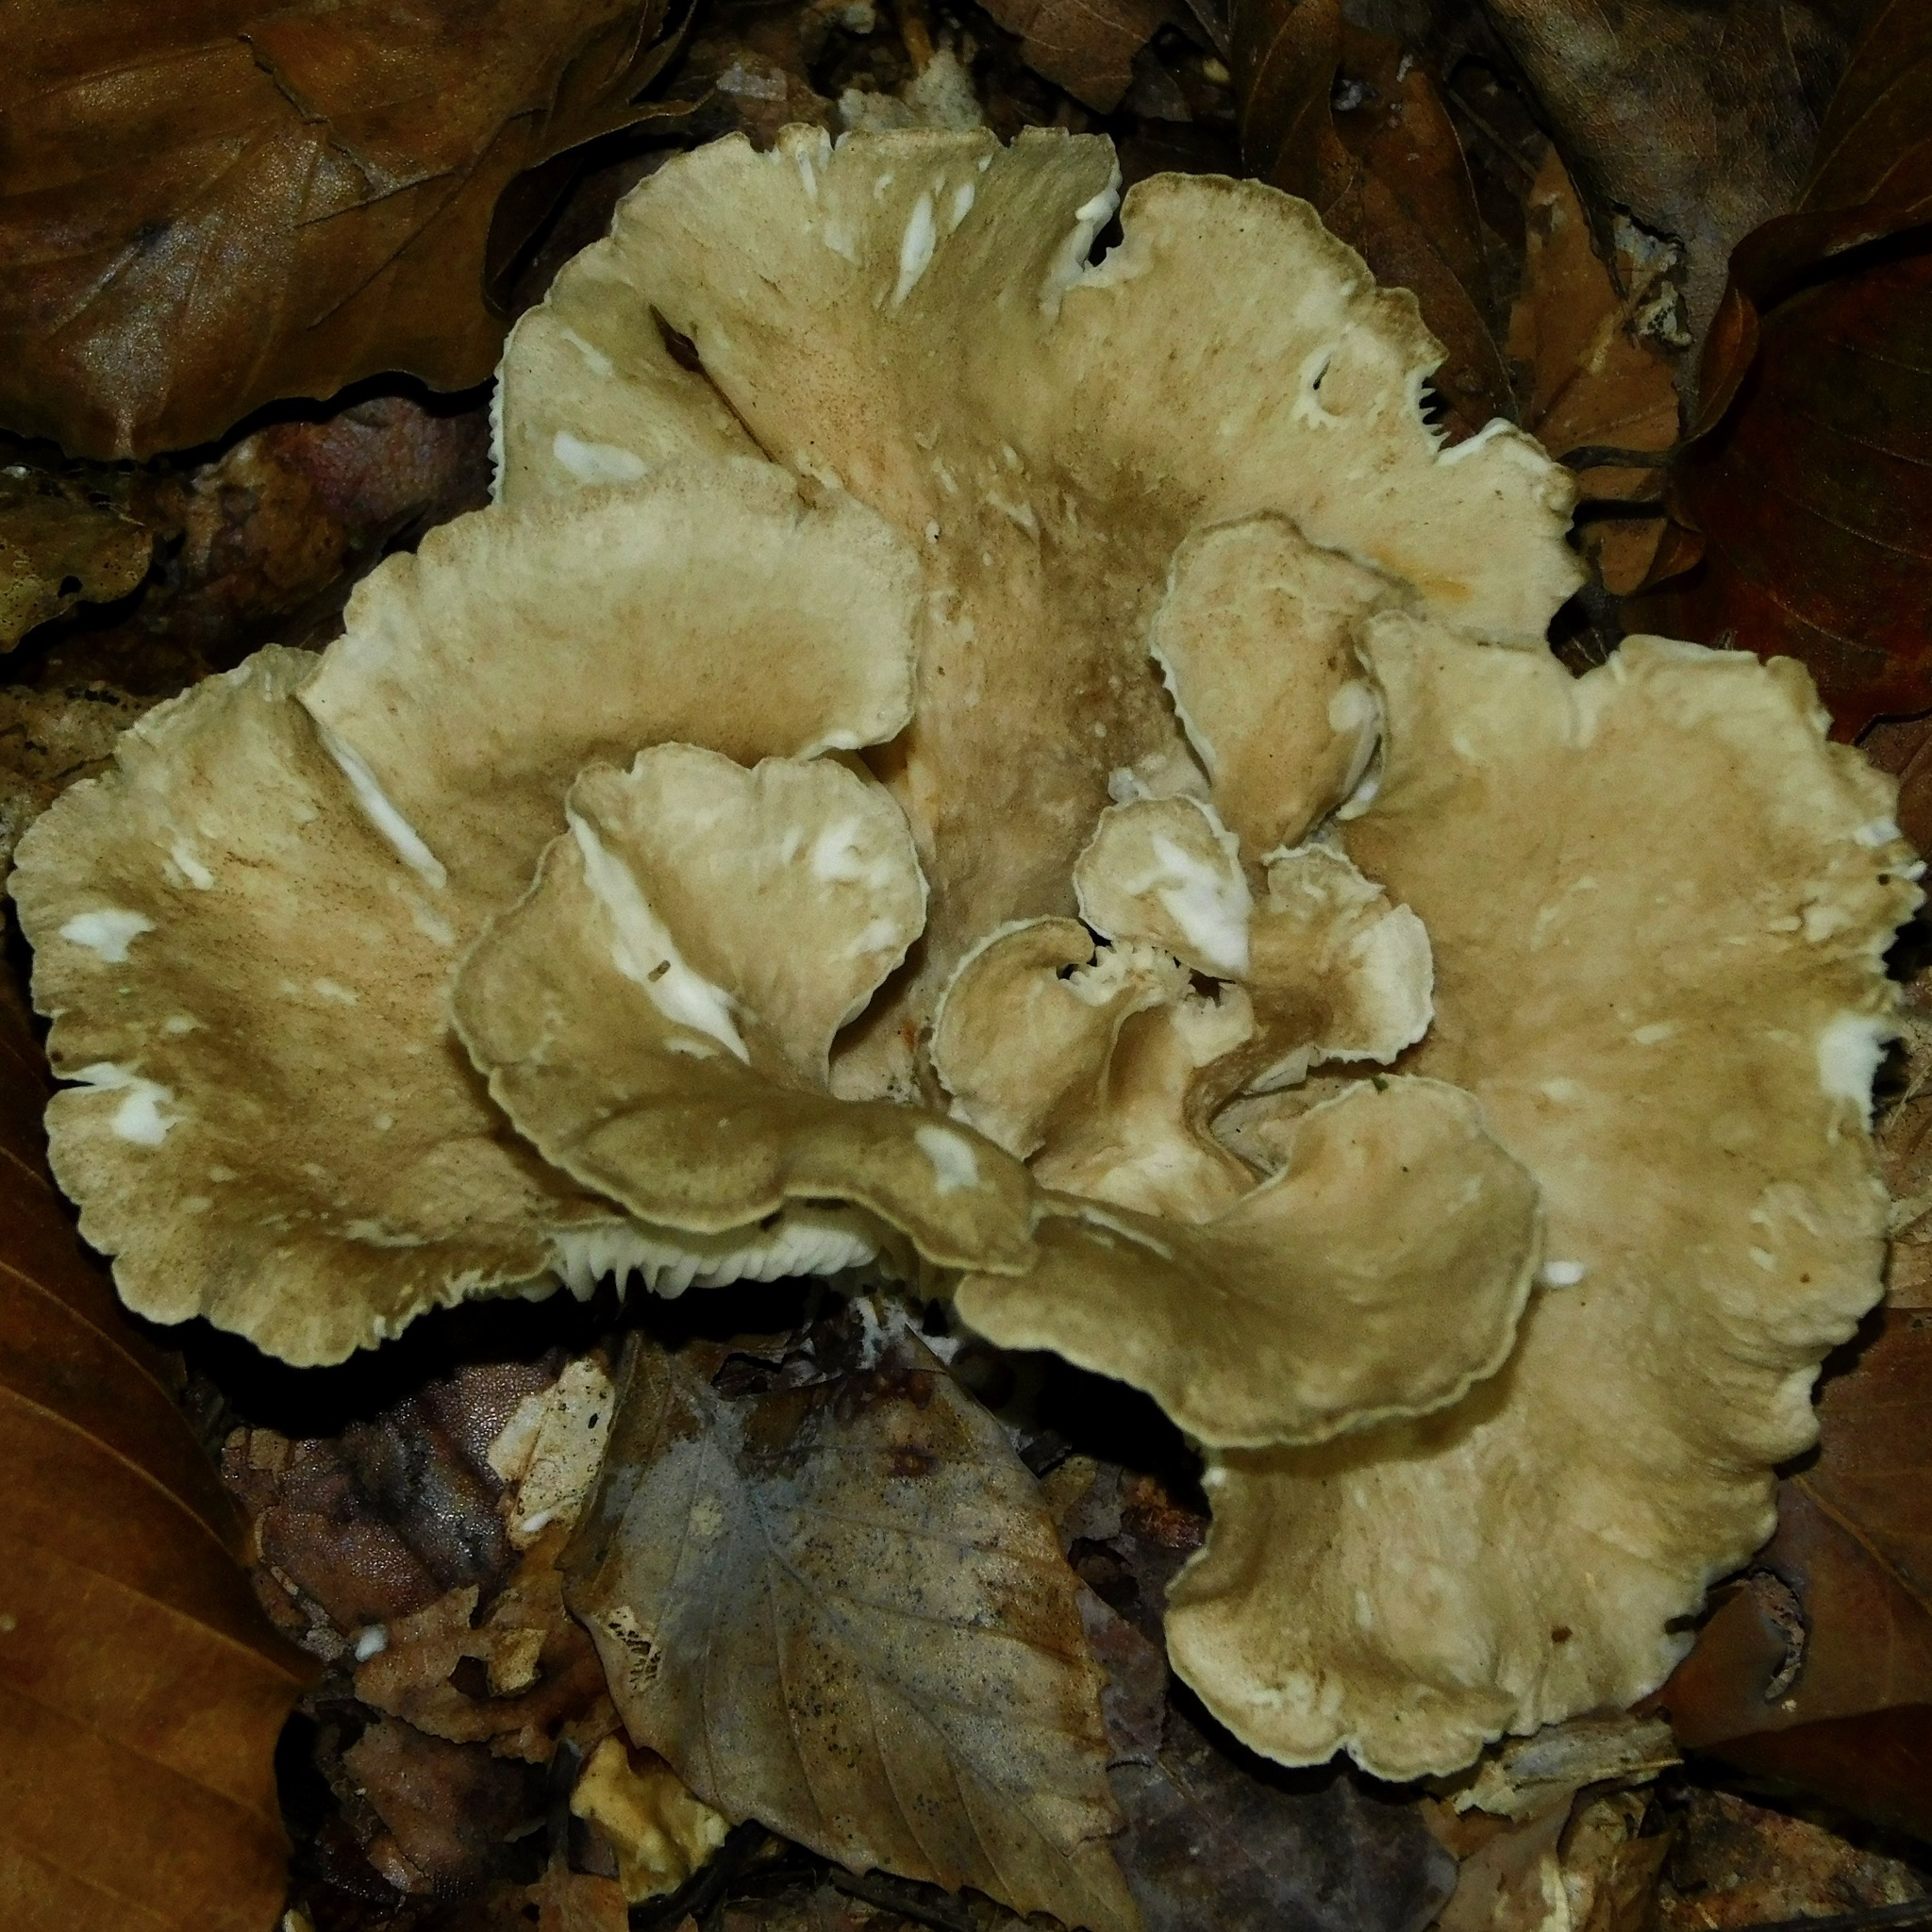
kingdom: Fungi
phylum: Basidiomycota
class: Agaricomycetes
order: Agaricales
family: Tricholomataceae
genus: Infundibulicybe
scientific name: Infundibulicybe gibba
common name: Common funnel
